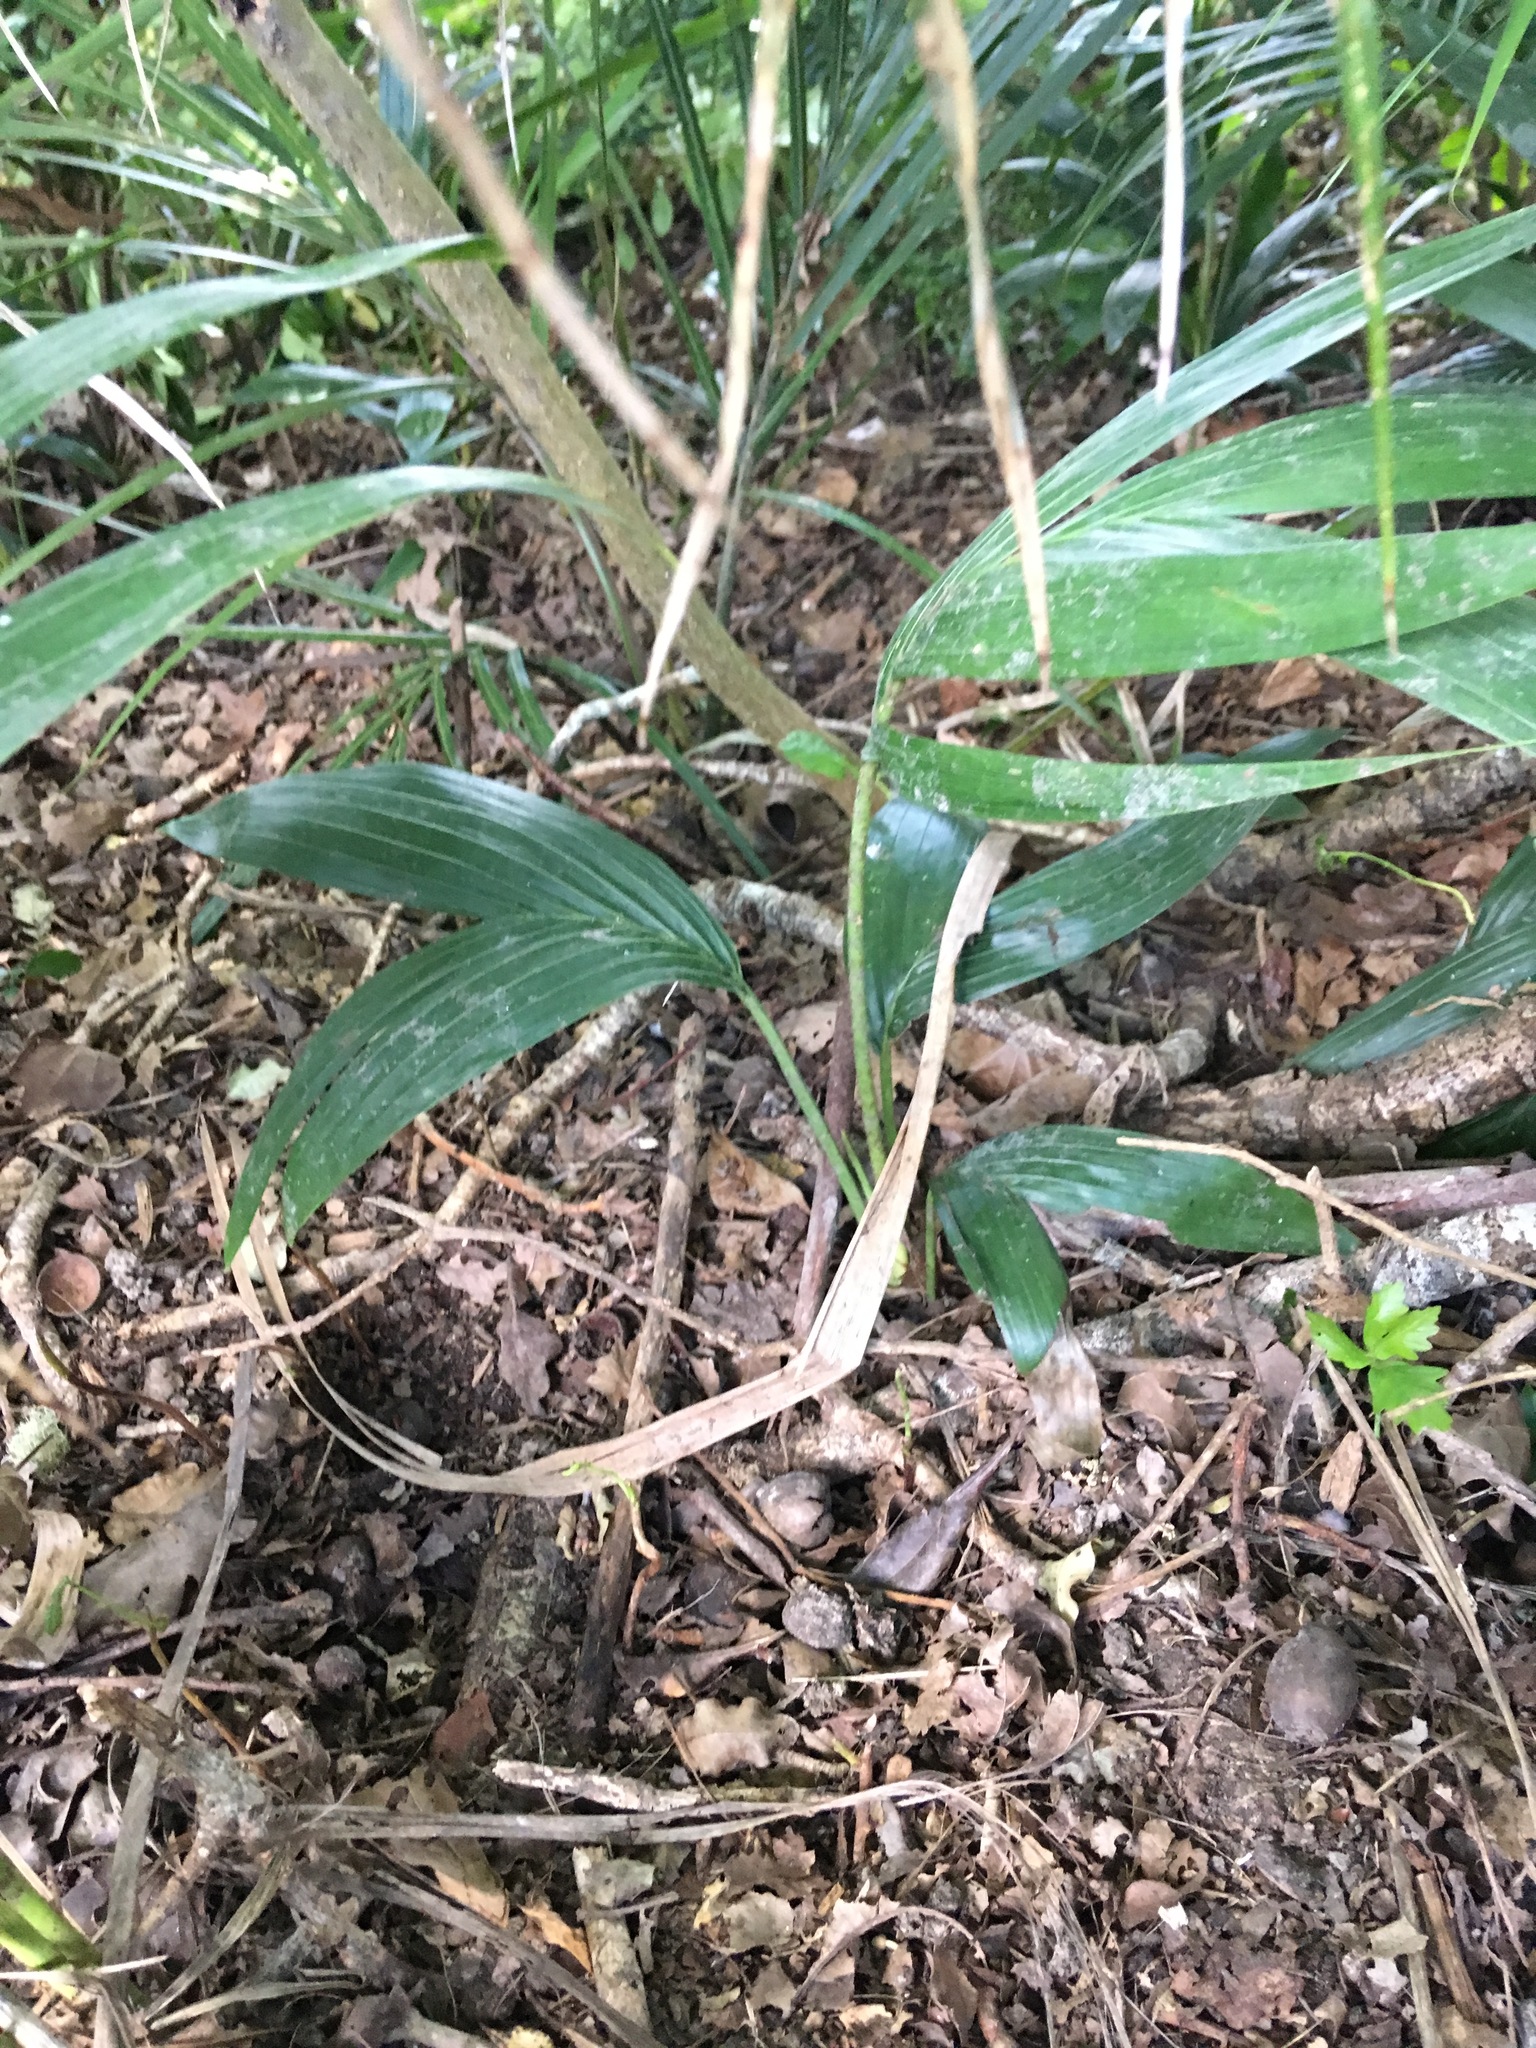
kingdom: Plantae
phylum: Tracheophyta
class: Liliopsida
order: Arecales
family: Arecaceae
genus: Archontophoenix
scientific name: Archontophoenix cunninghamiana
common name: Piccabeen bangalow palm
